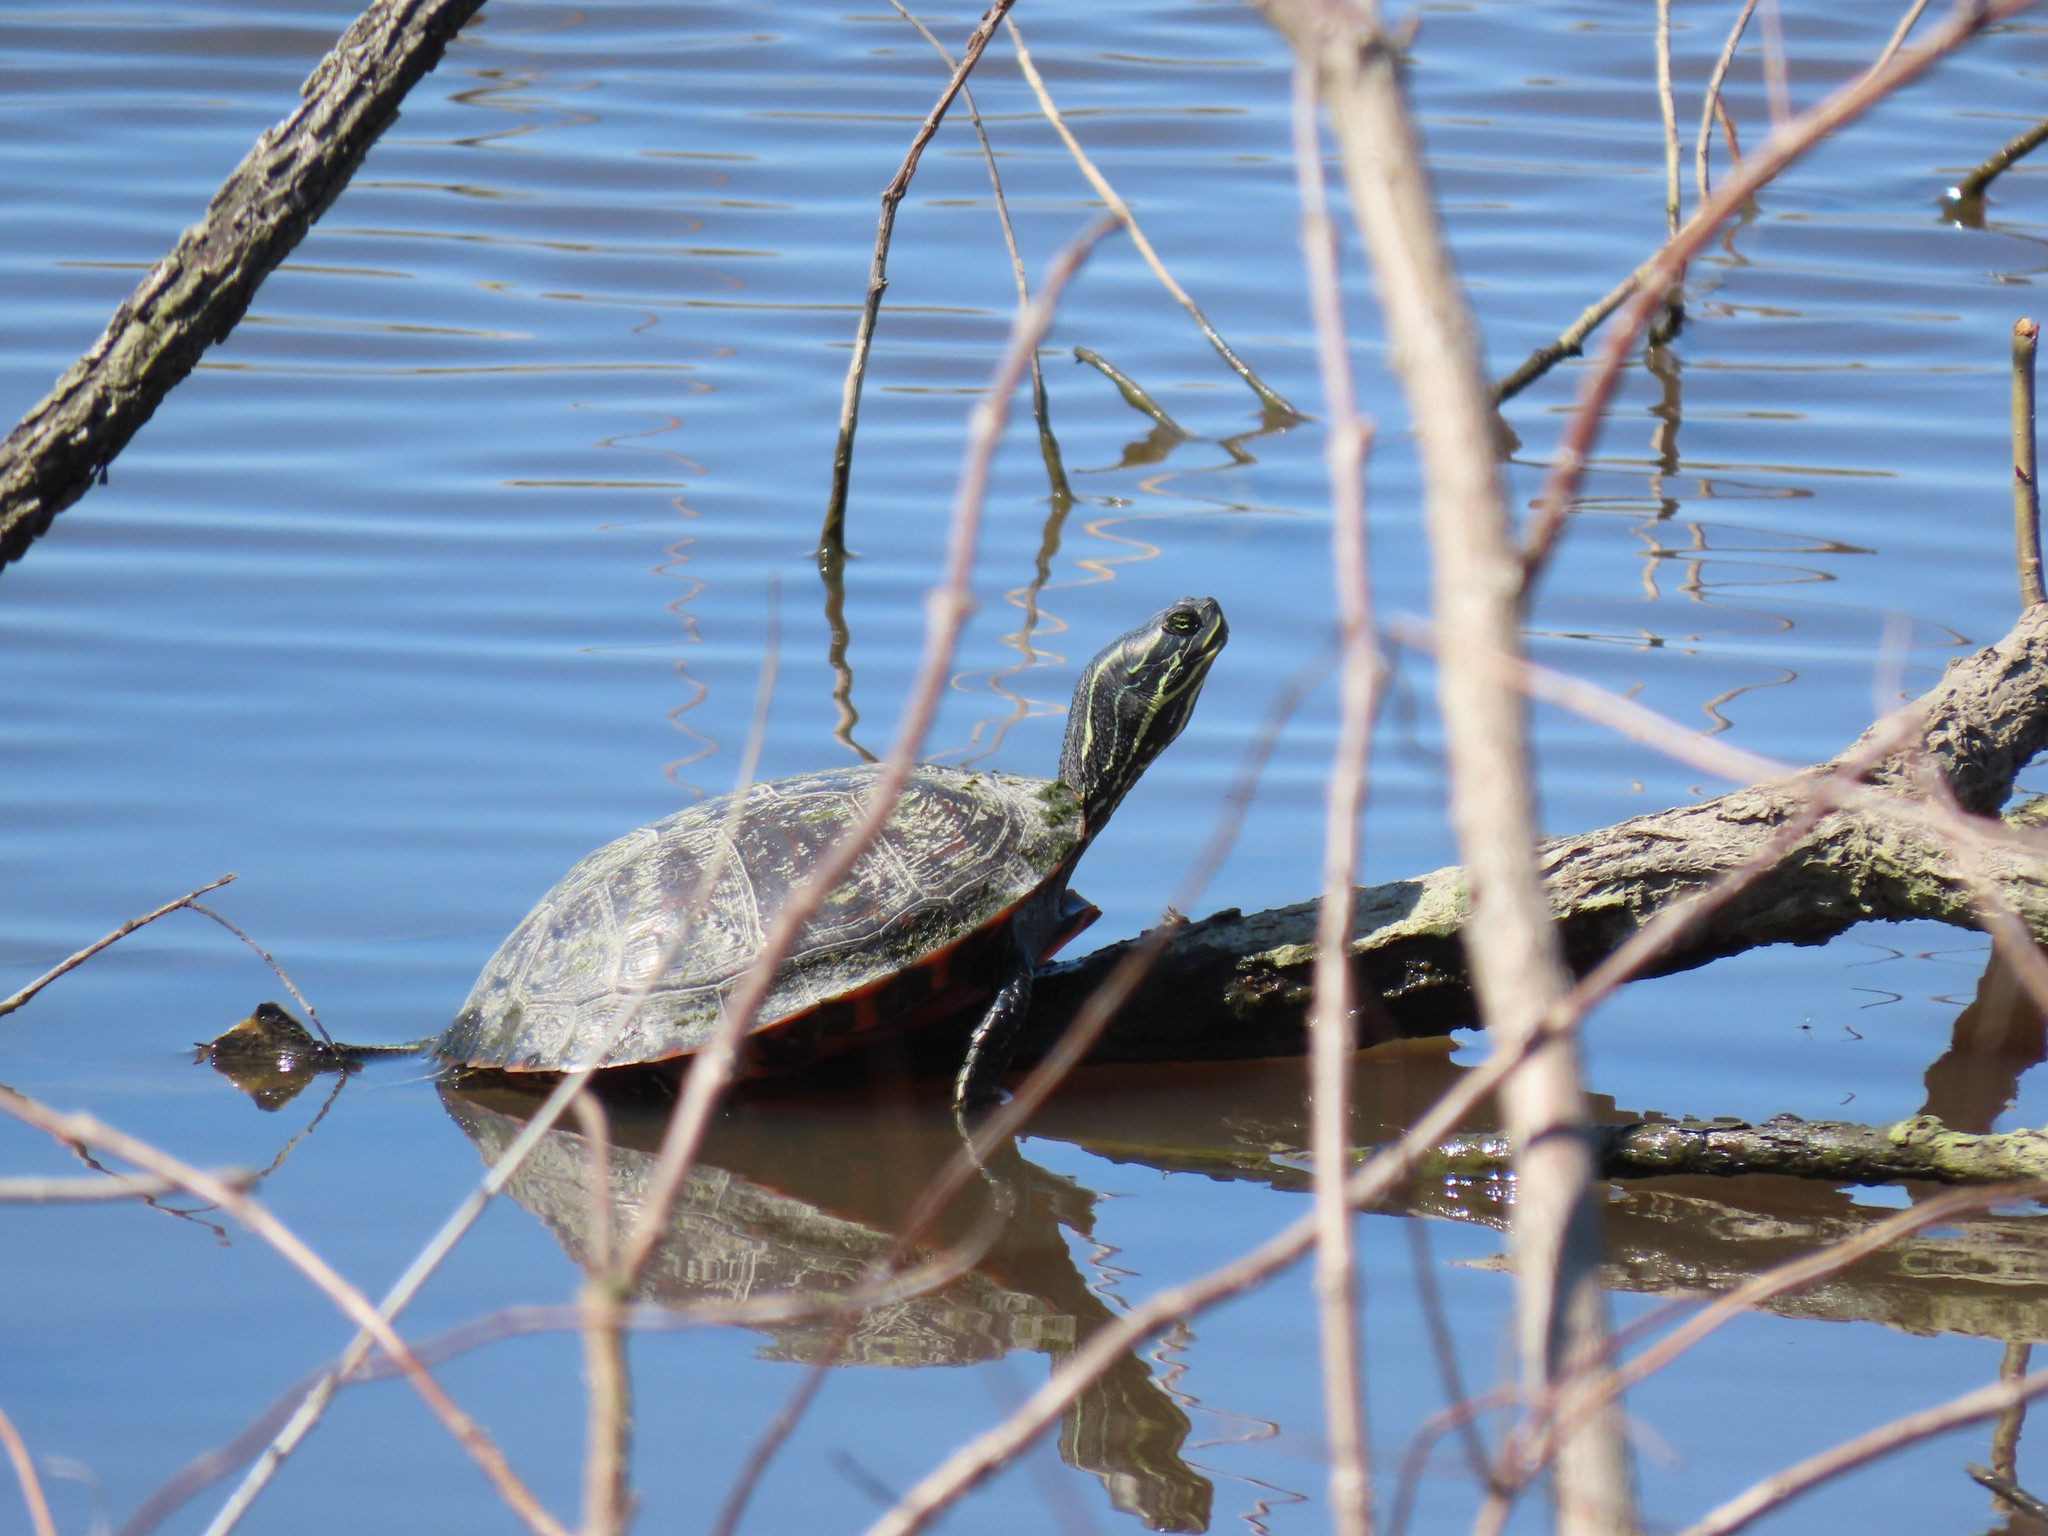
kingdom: Animalia
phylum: Chordata
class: Testudines
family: Emydidae
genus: Pseudemys
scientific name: Pseudemys rubriventris
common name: American red-bellied turtle
